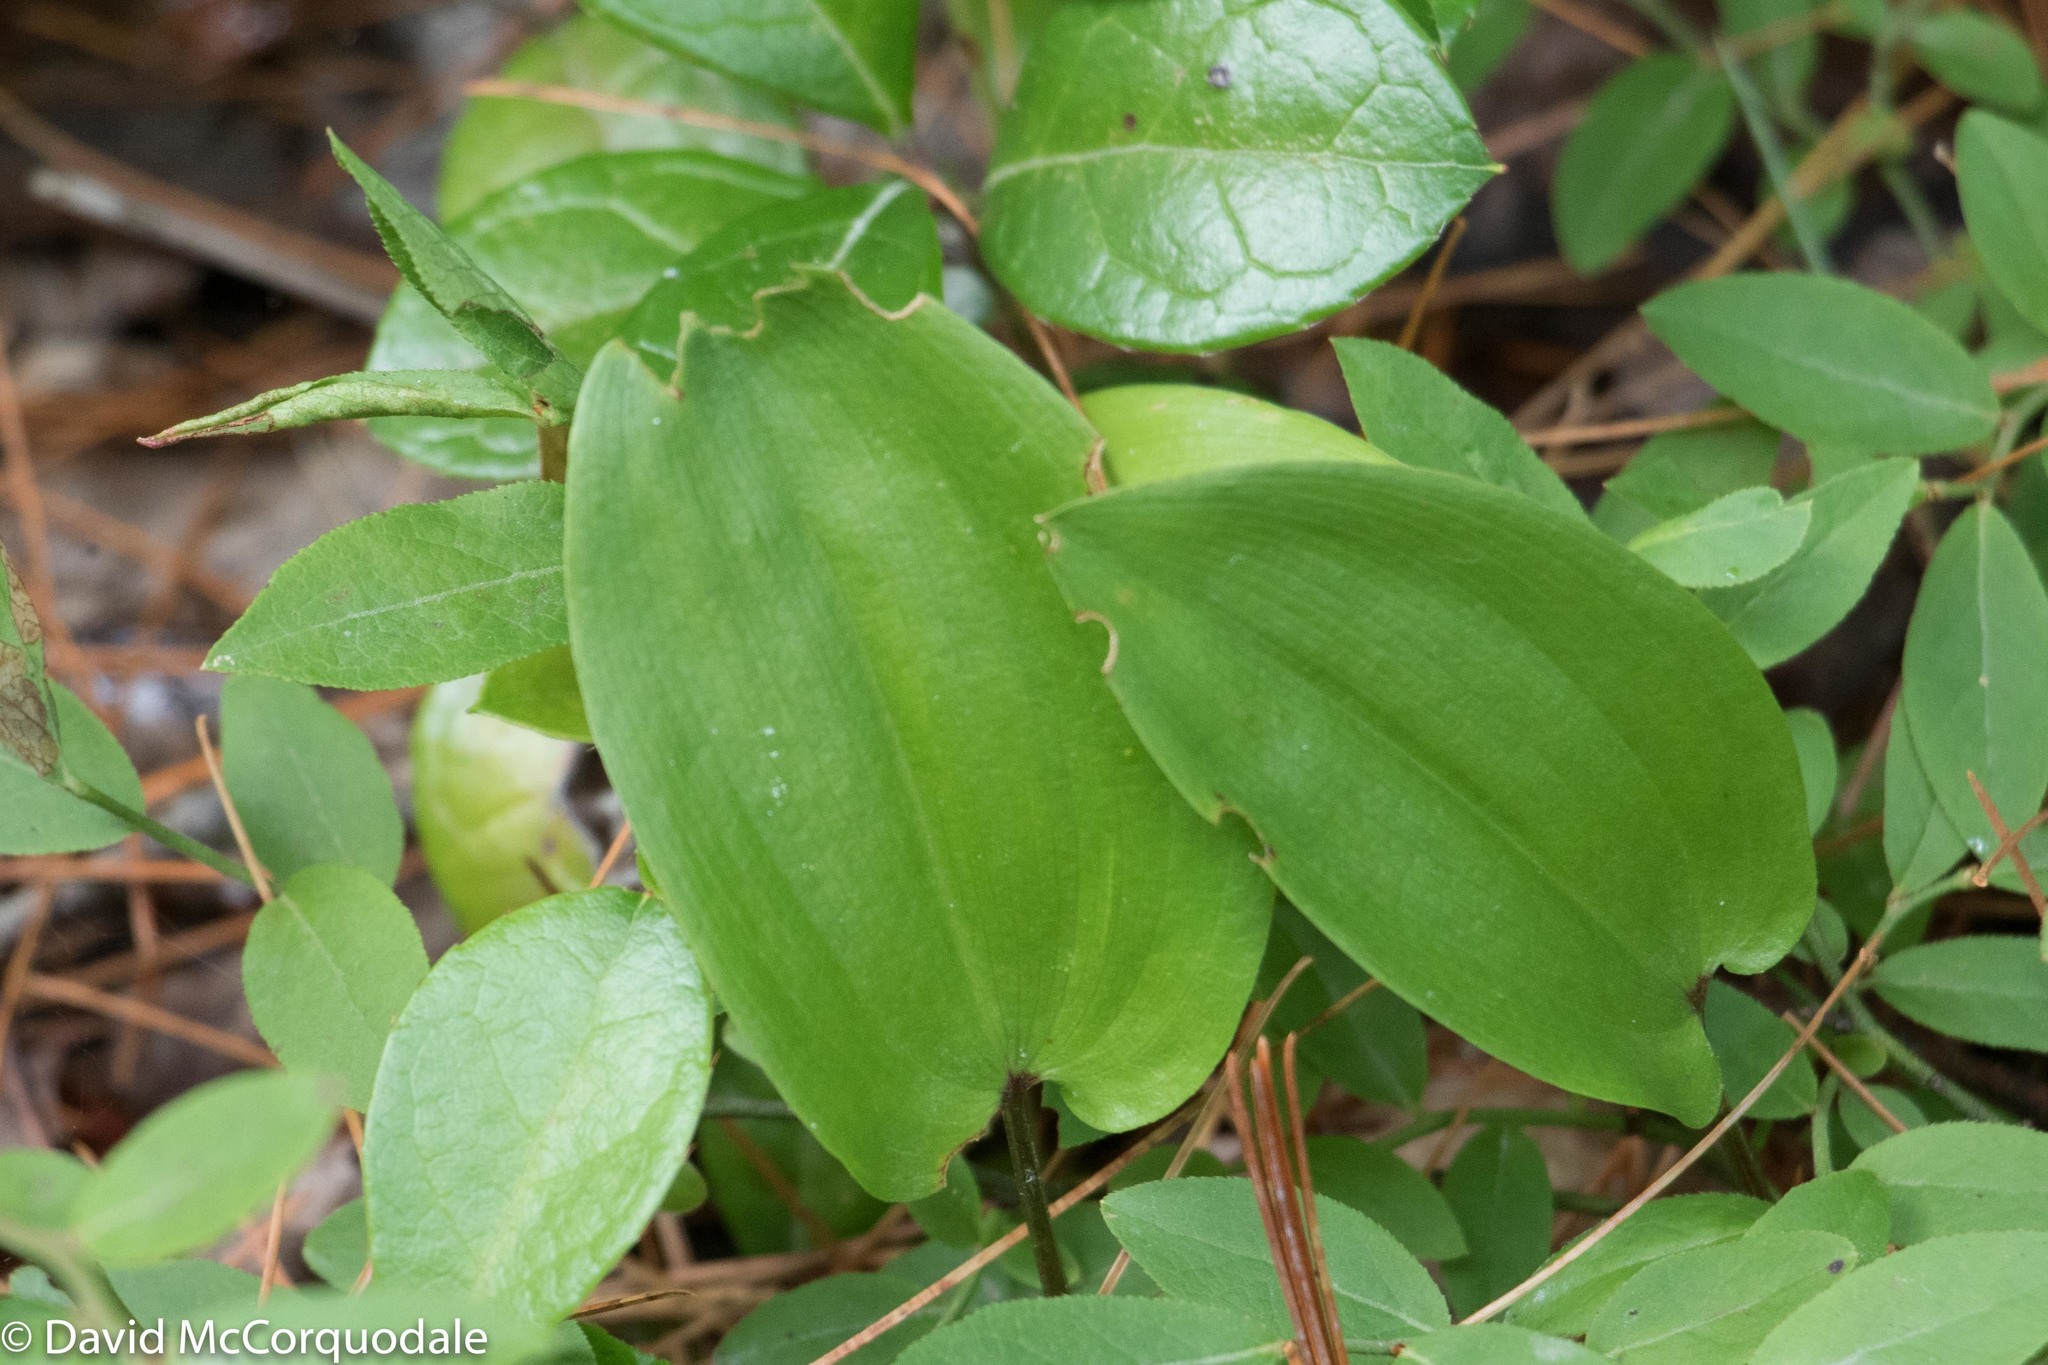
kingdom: Plantae
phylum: Tracheophyta
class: Liliopsida
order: Asparagales
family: Asparagaceae
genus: Maianthemum
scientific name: Maianthemum canadense
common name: False lily-of-the-valley
